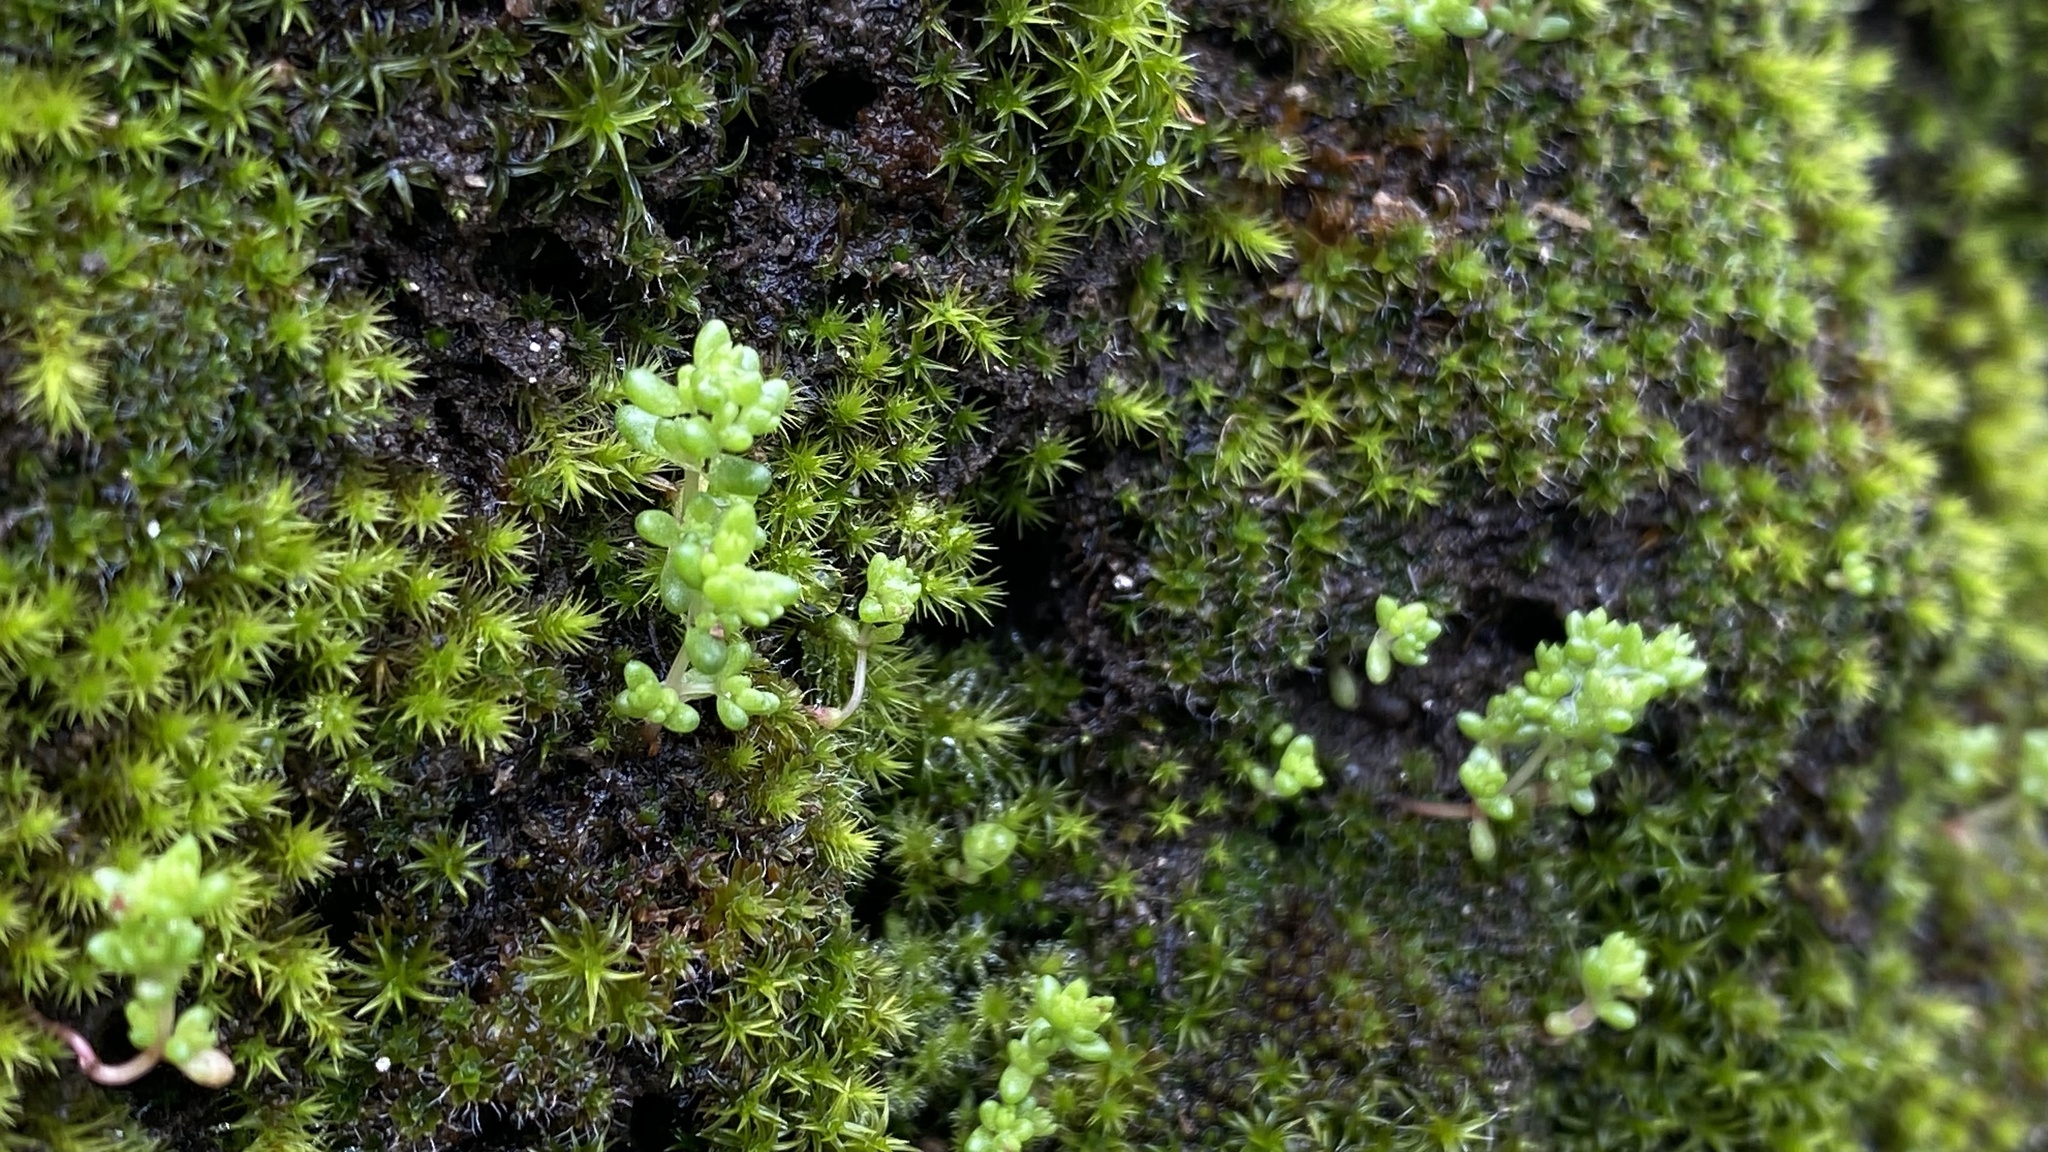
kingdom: Plantae
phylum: Tracheophyta
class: Magnoliopsida
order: Saxifragales
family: Crassulaceae
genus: Crassula
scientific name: Crassula connata
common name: Erect pygmyweed
